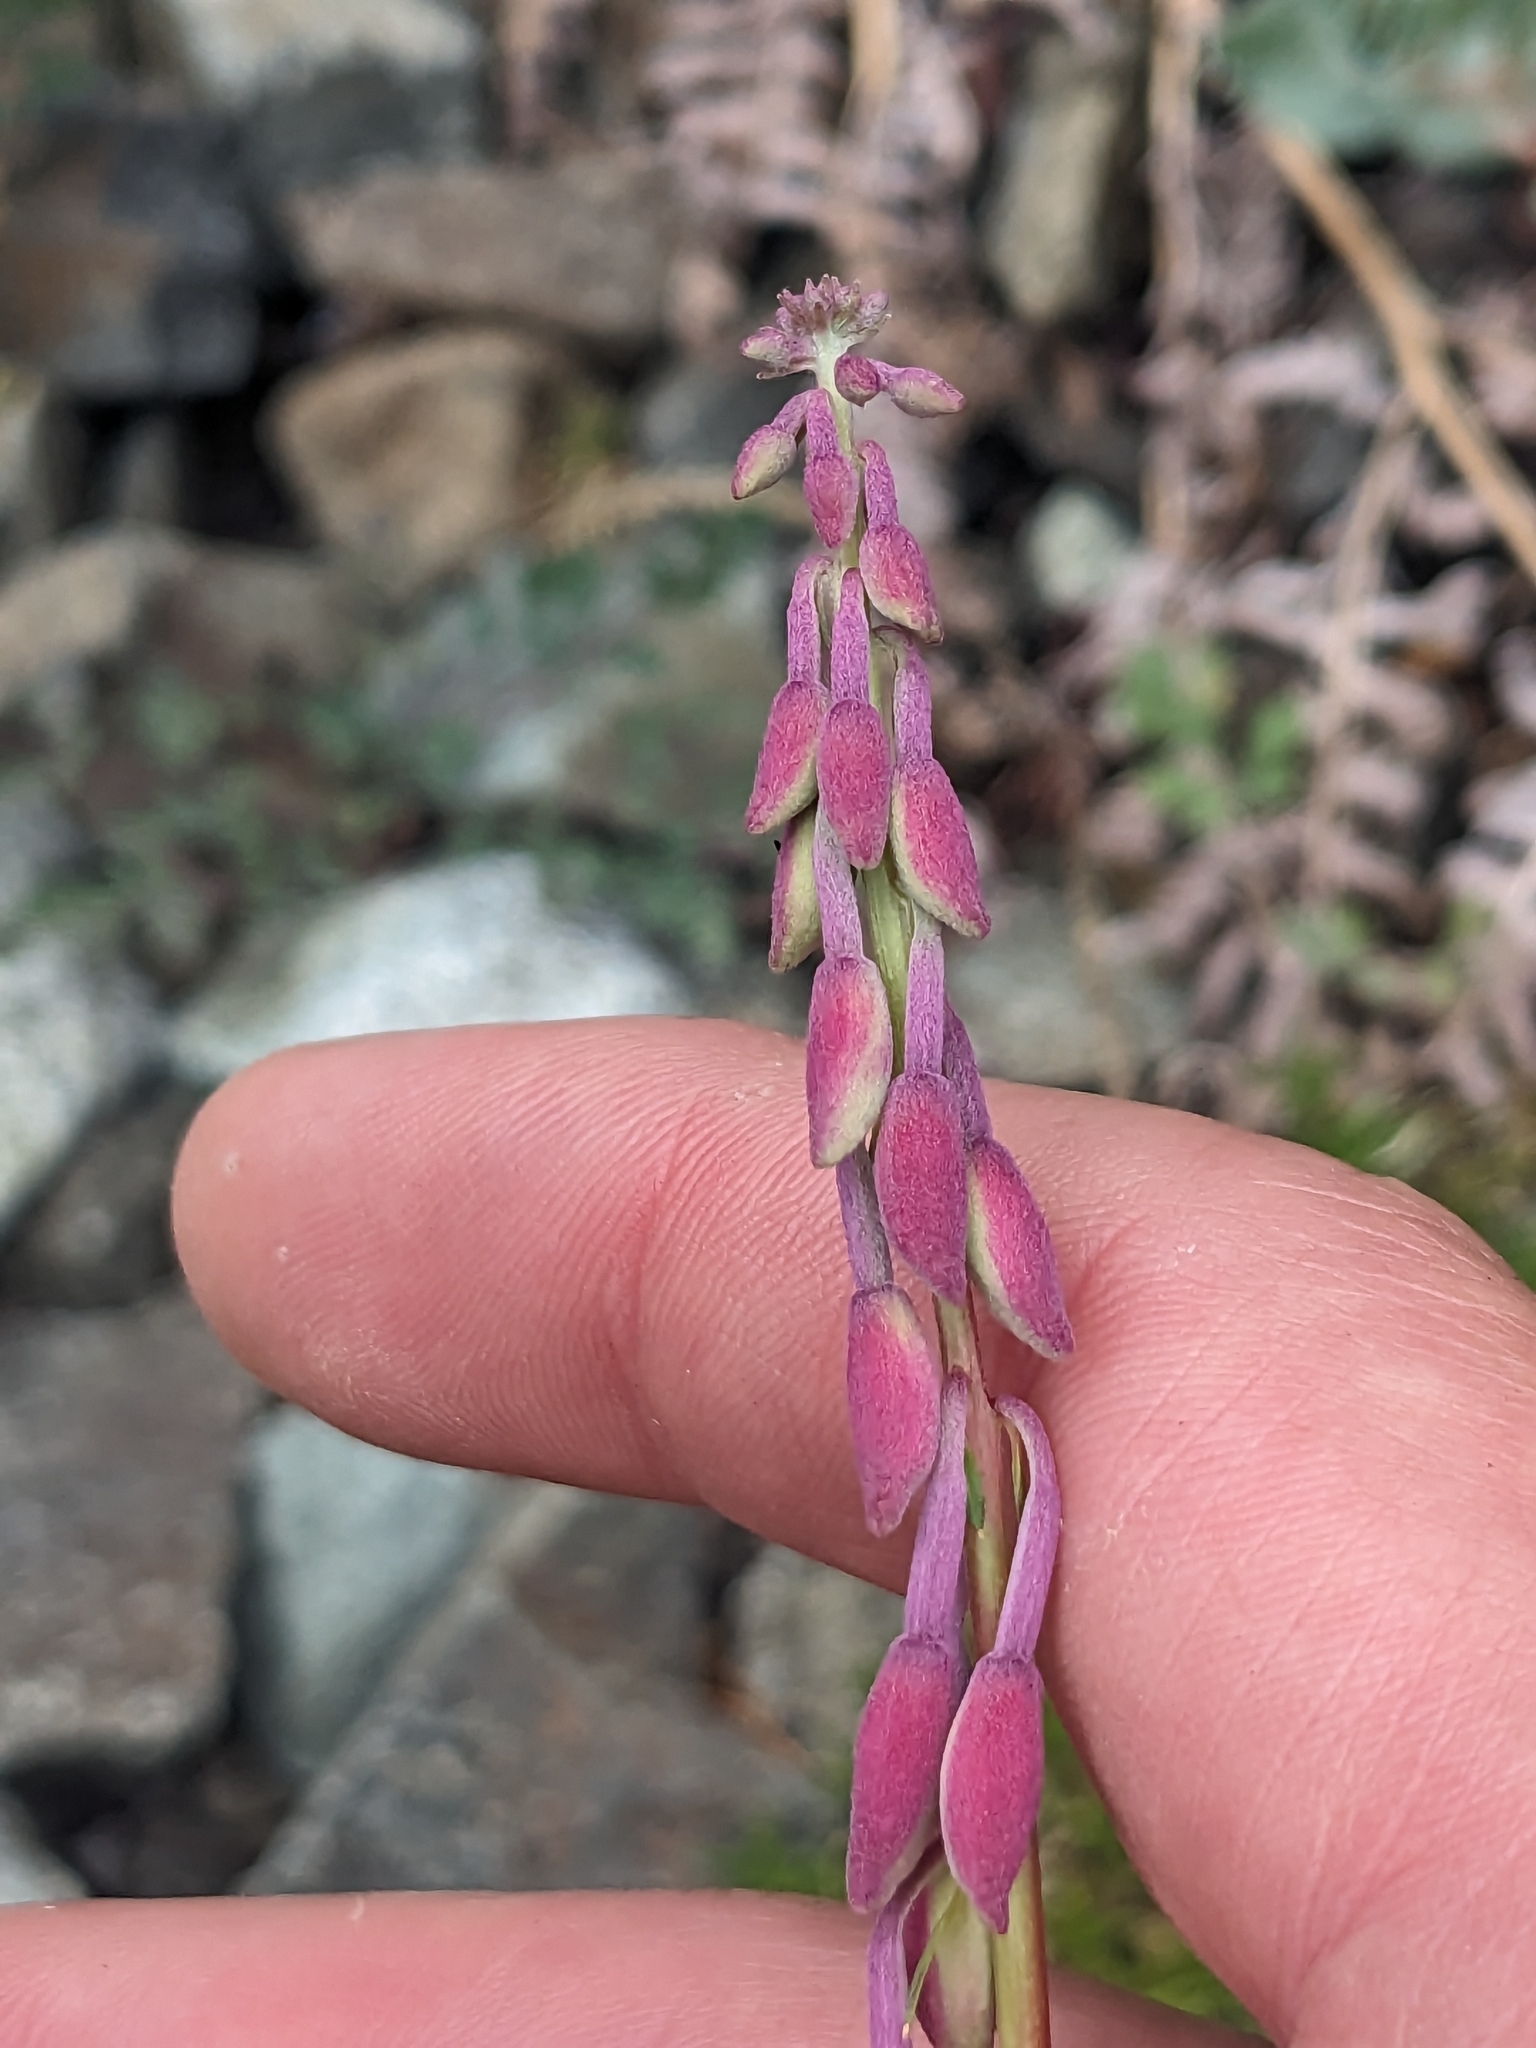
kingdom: Plantae
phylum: Tracheophyta
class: Magnoliopsida
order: Myrtales
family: Onagraceae
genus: Chamaenerion
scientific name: Chamaenerion angustifolium
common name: Fireweed
